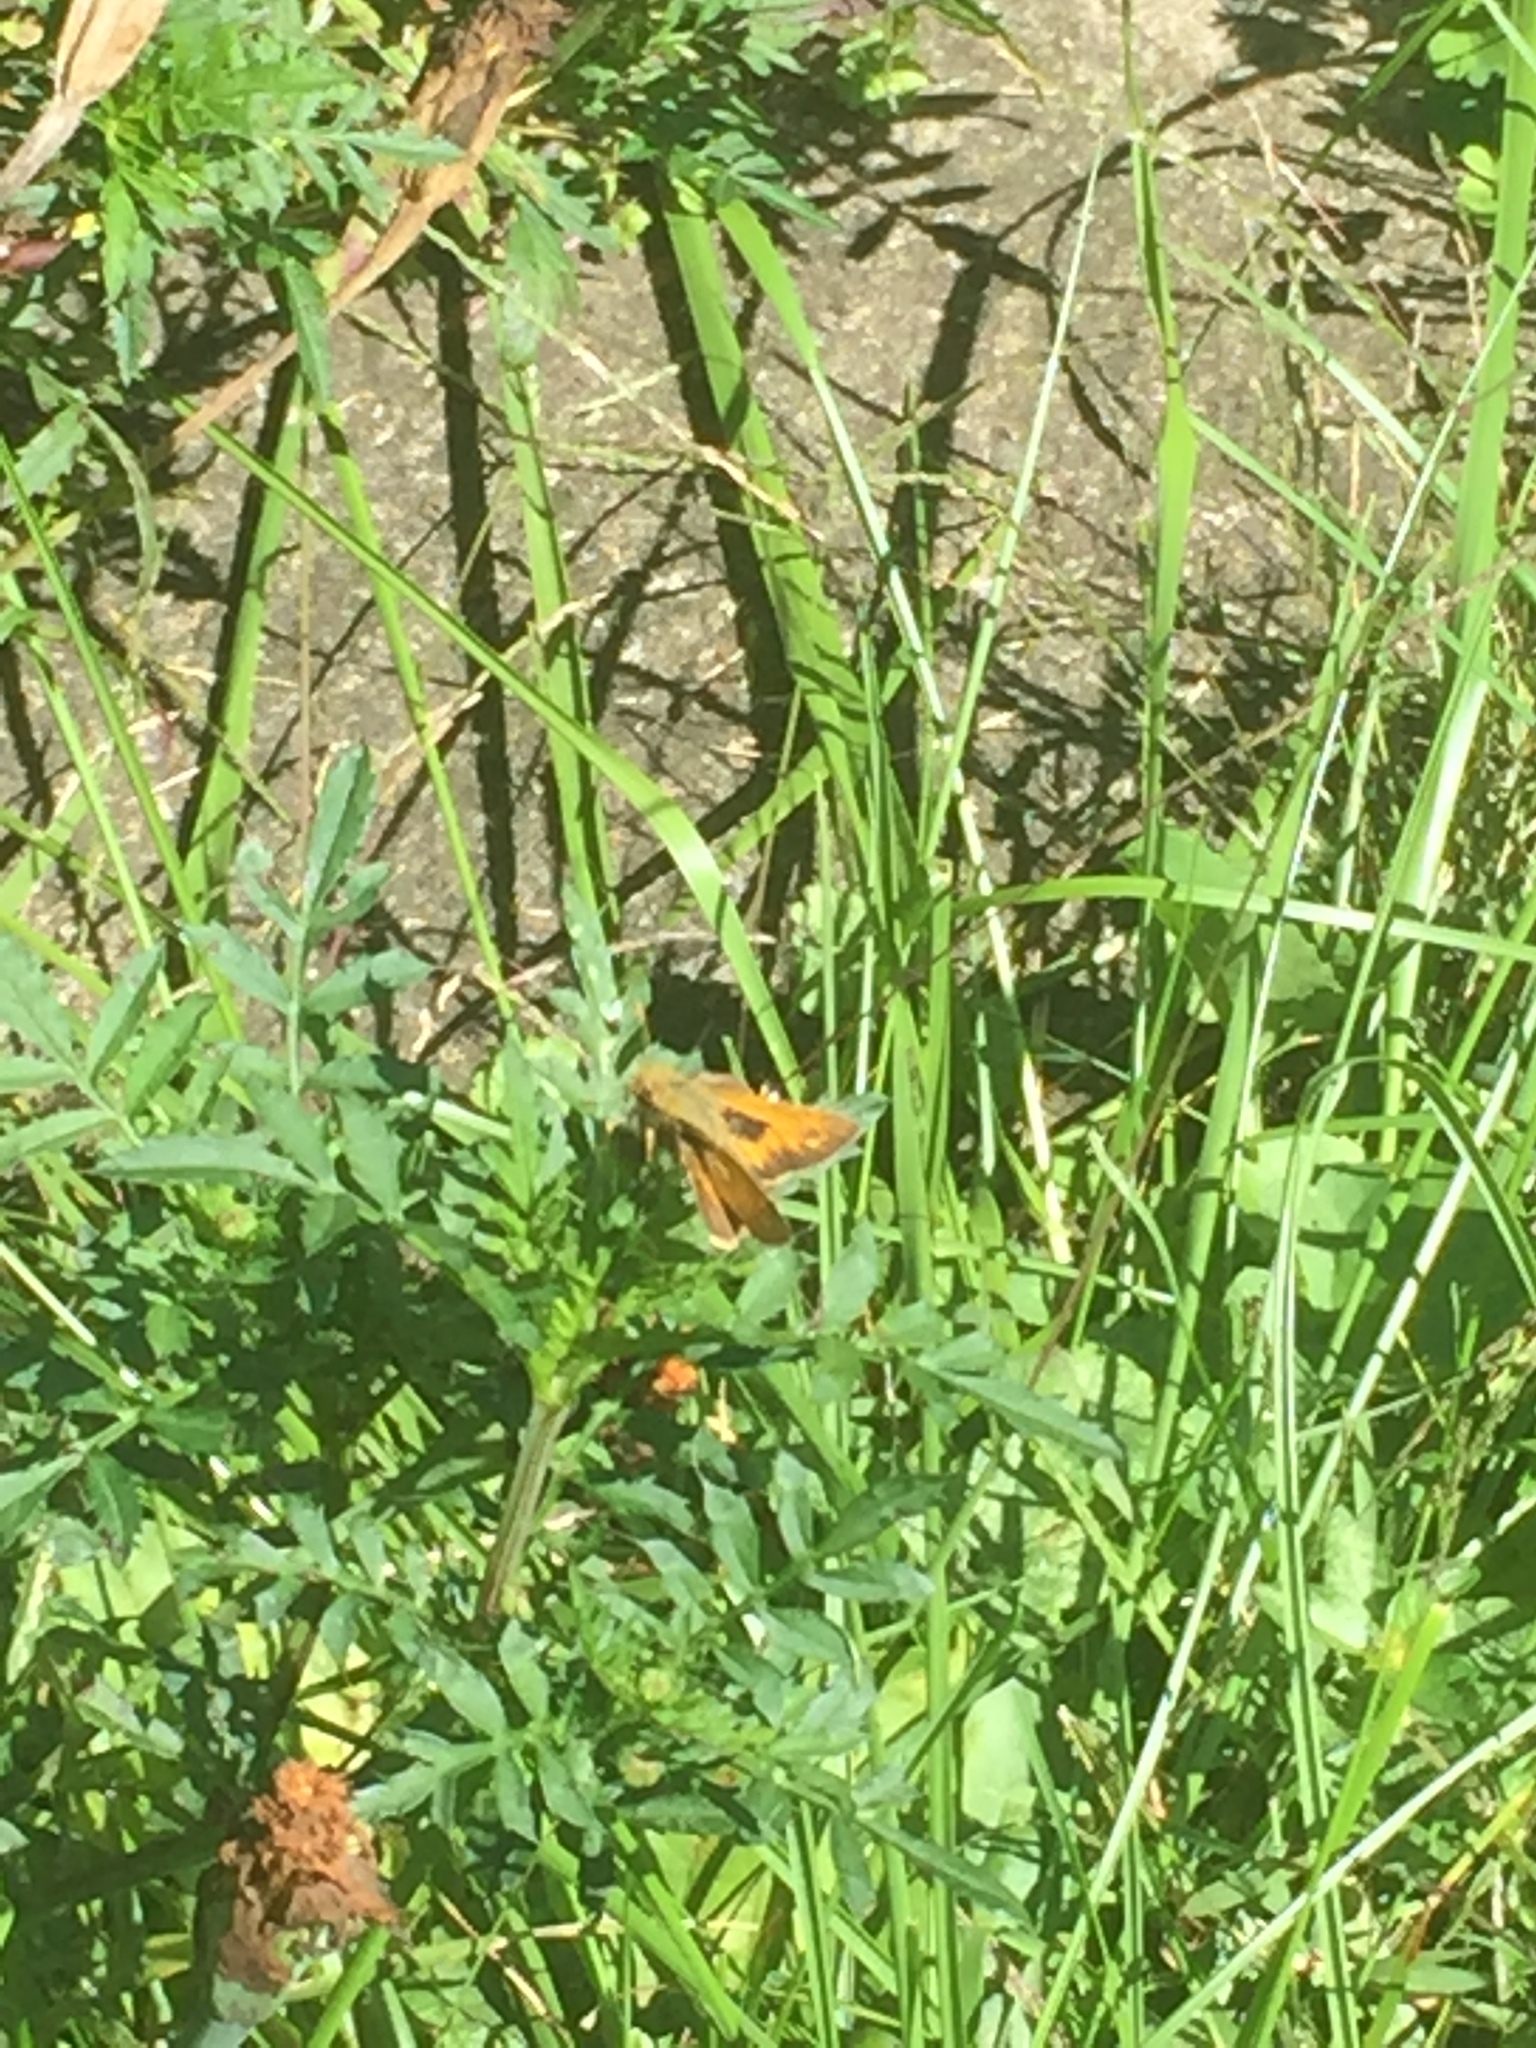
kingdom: Animalia
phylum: Arthropoda
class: Insecta
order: Lepidoptera
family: Hesperiidae
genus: Atalopedes
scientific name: Atalopedes
